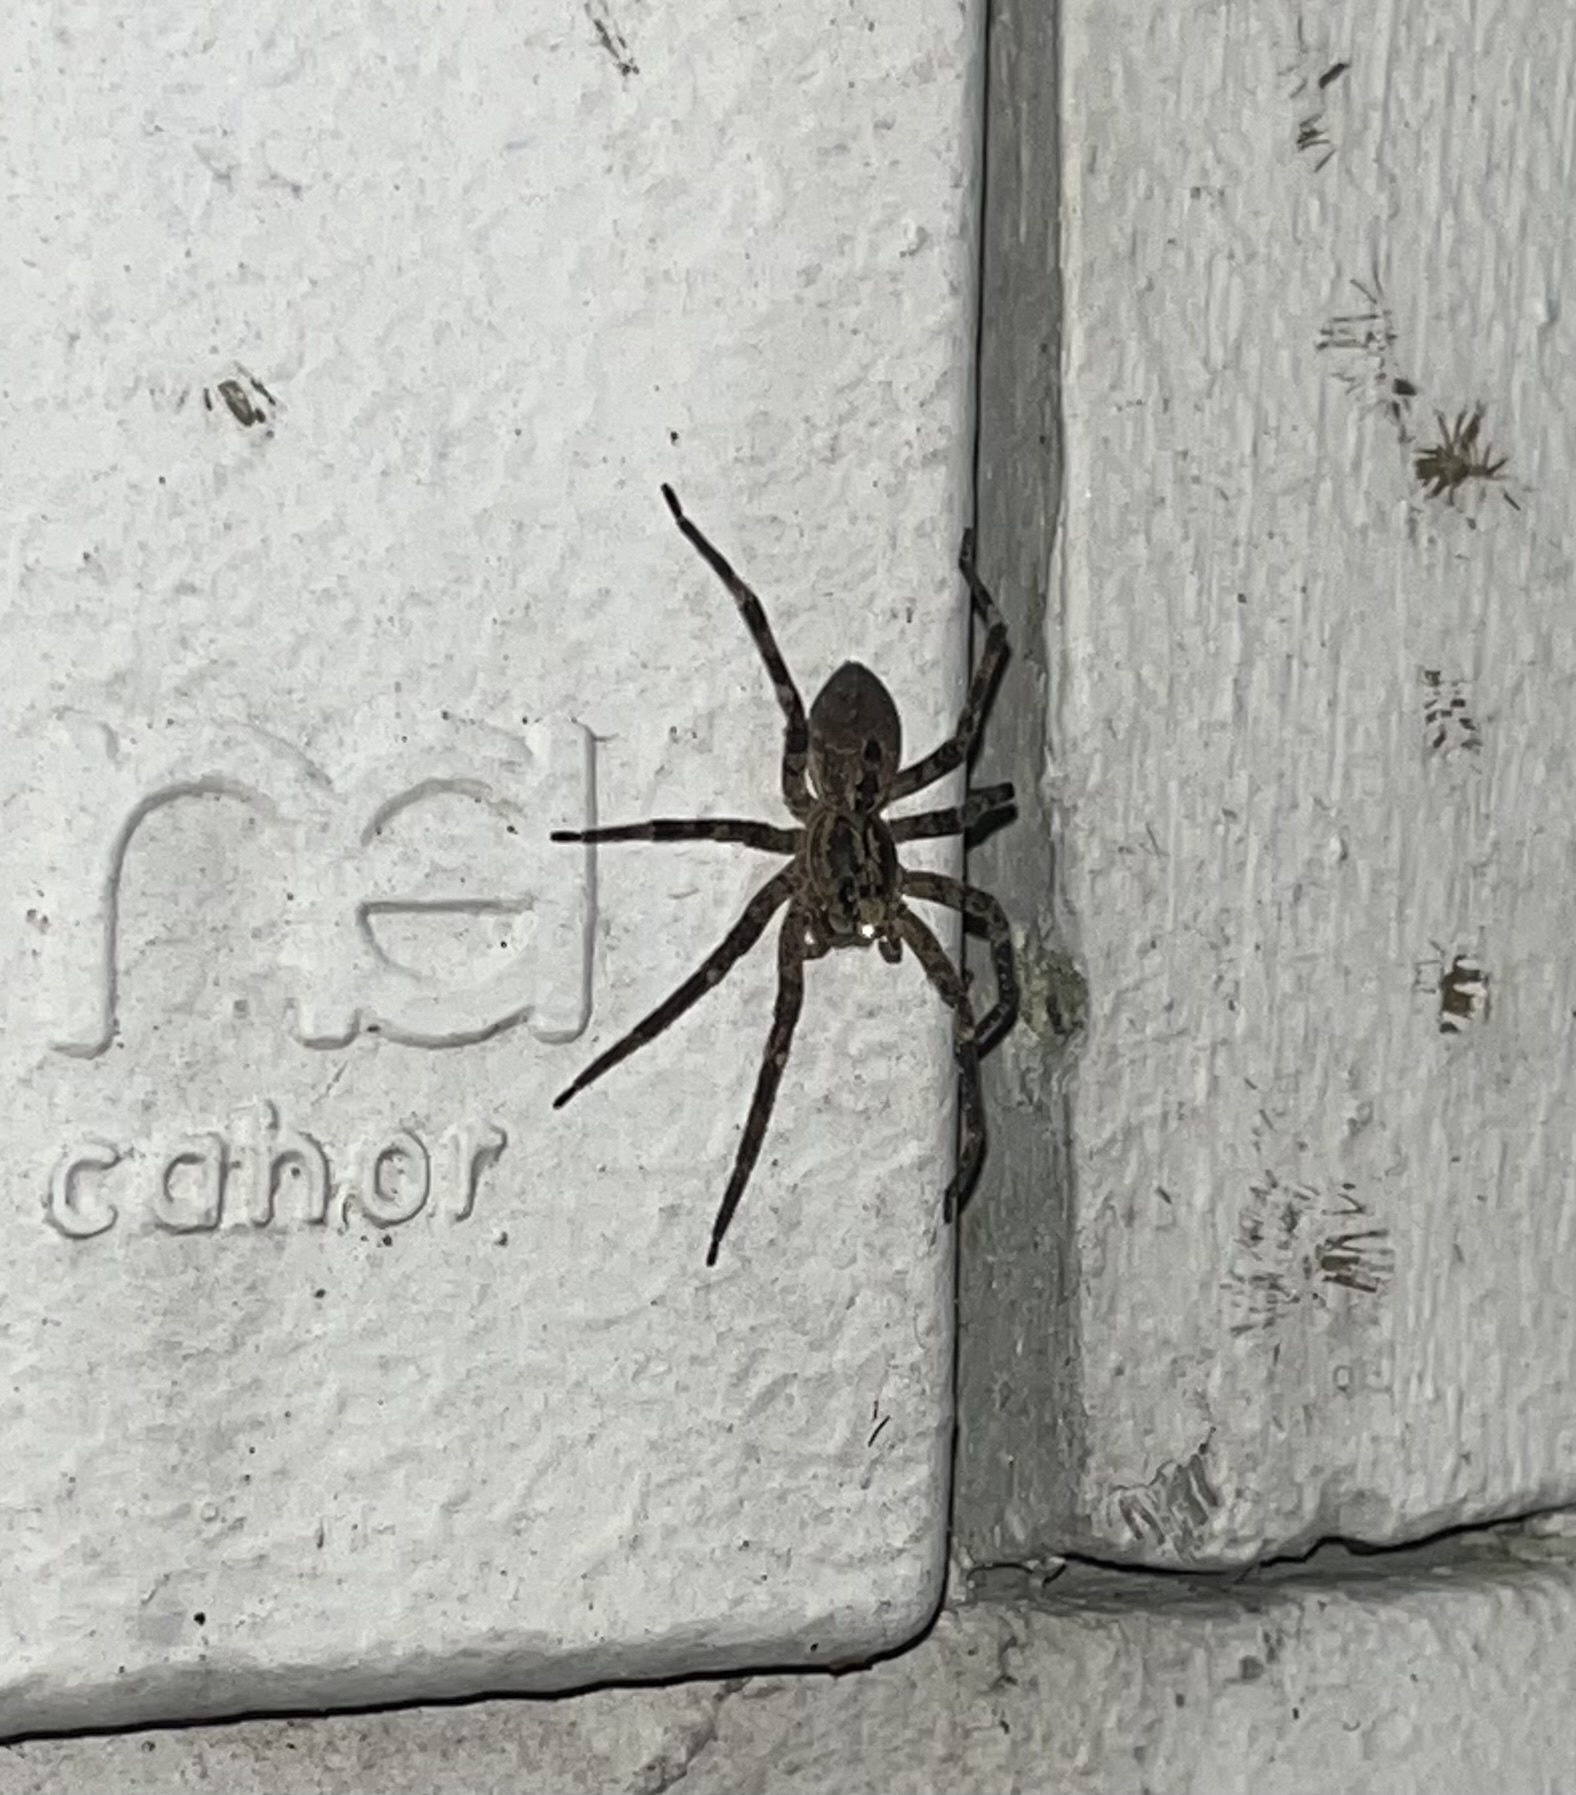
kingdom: Animalia
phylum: Arthropoda
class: Arachnida
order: Araneae
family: Zoropsidae
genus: Zoropsis
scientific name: Zoropsis spinimana
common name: Zoropsid spider
